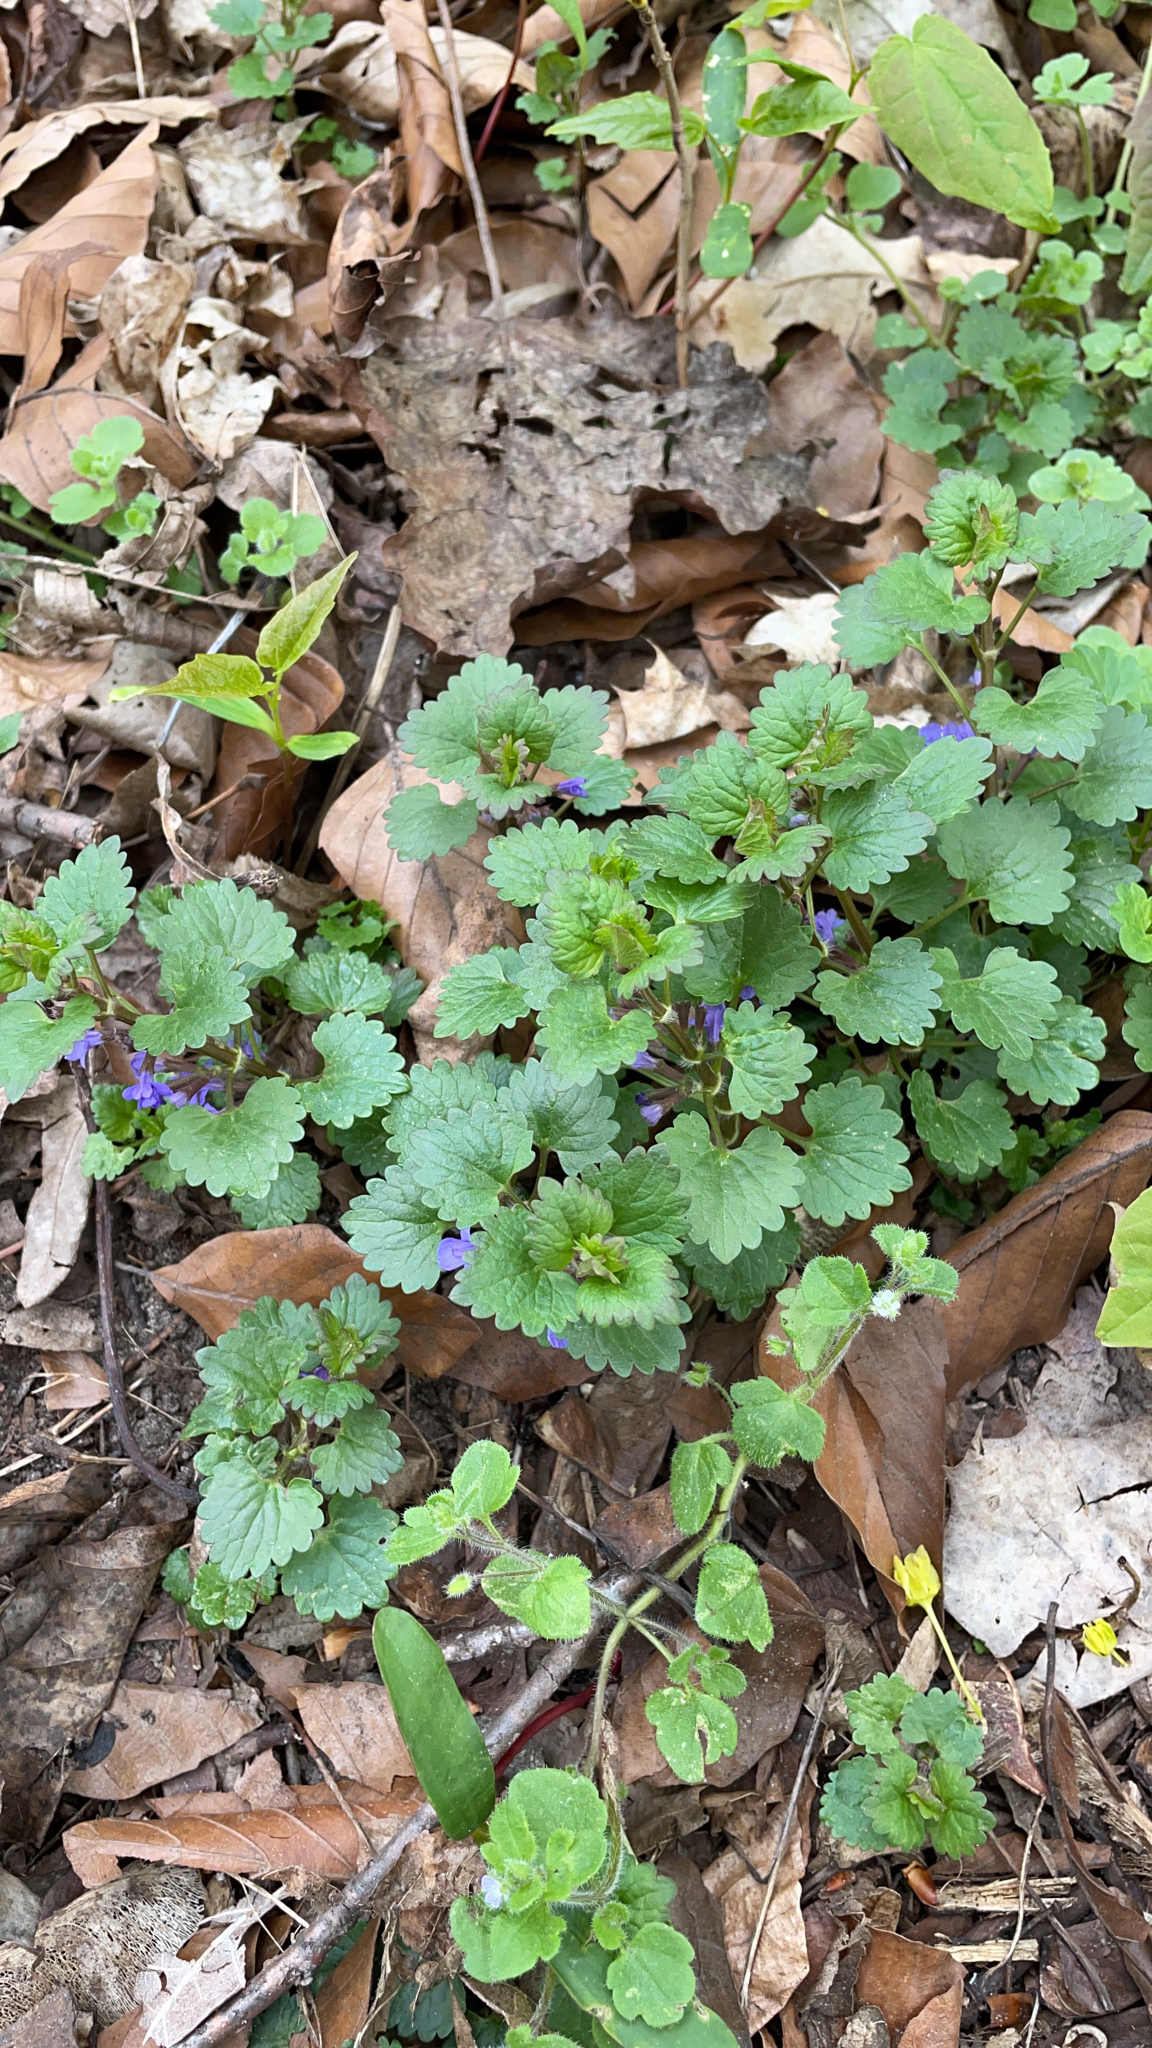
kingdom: Plantae
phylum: Tracheophyta
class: Magnoliopsida
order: Lamiales
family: Lamiaceae
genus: Glechoma
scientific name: Glechoma hederacea
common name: Ground ivy
